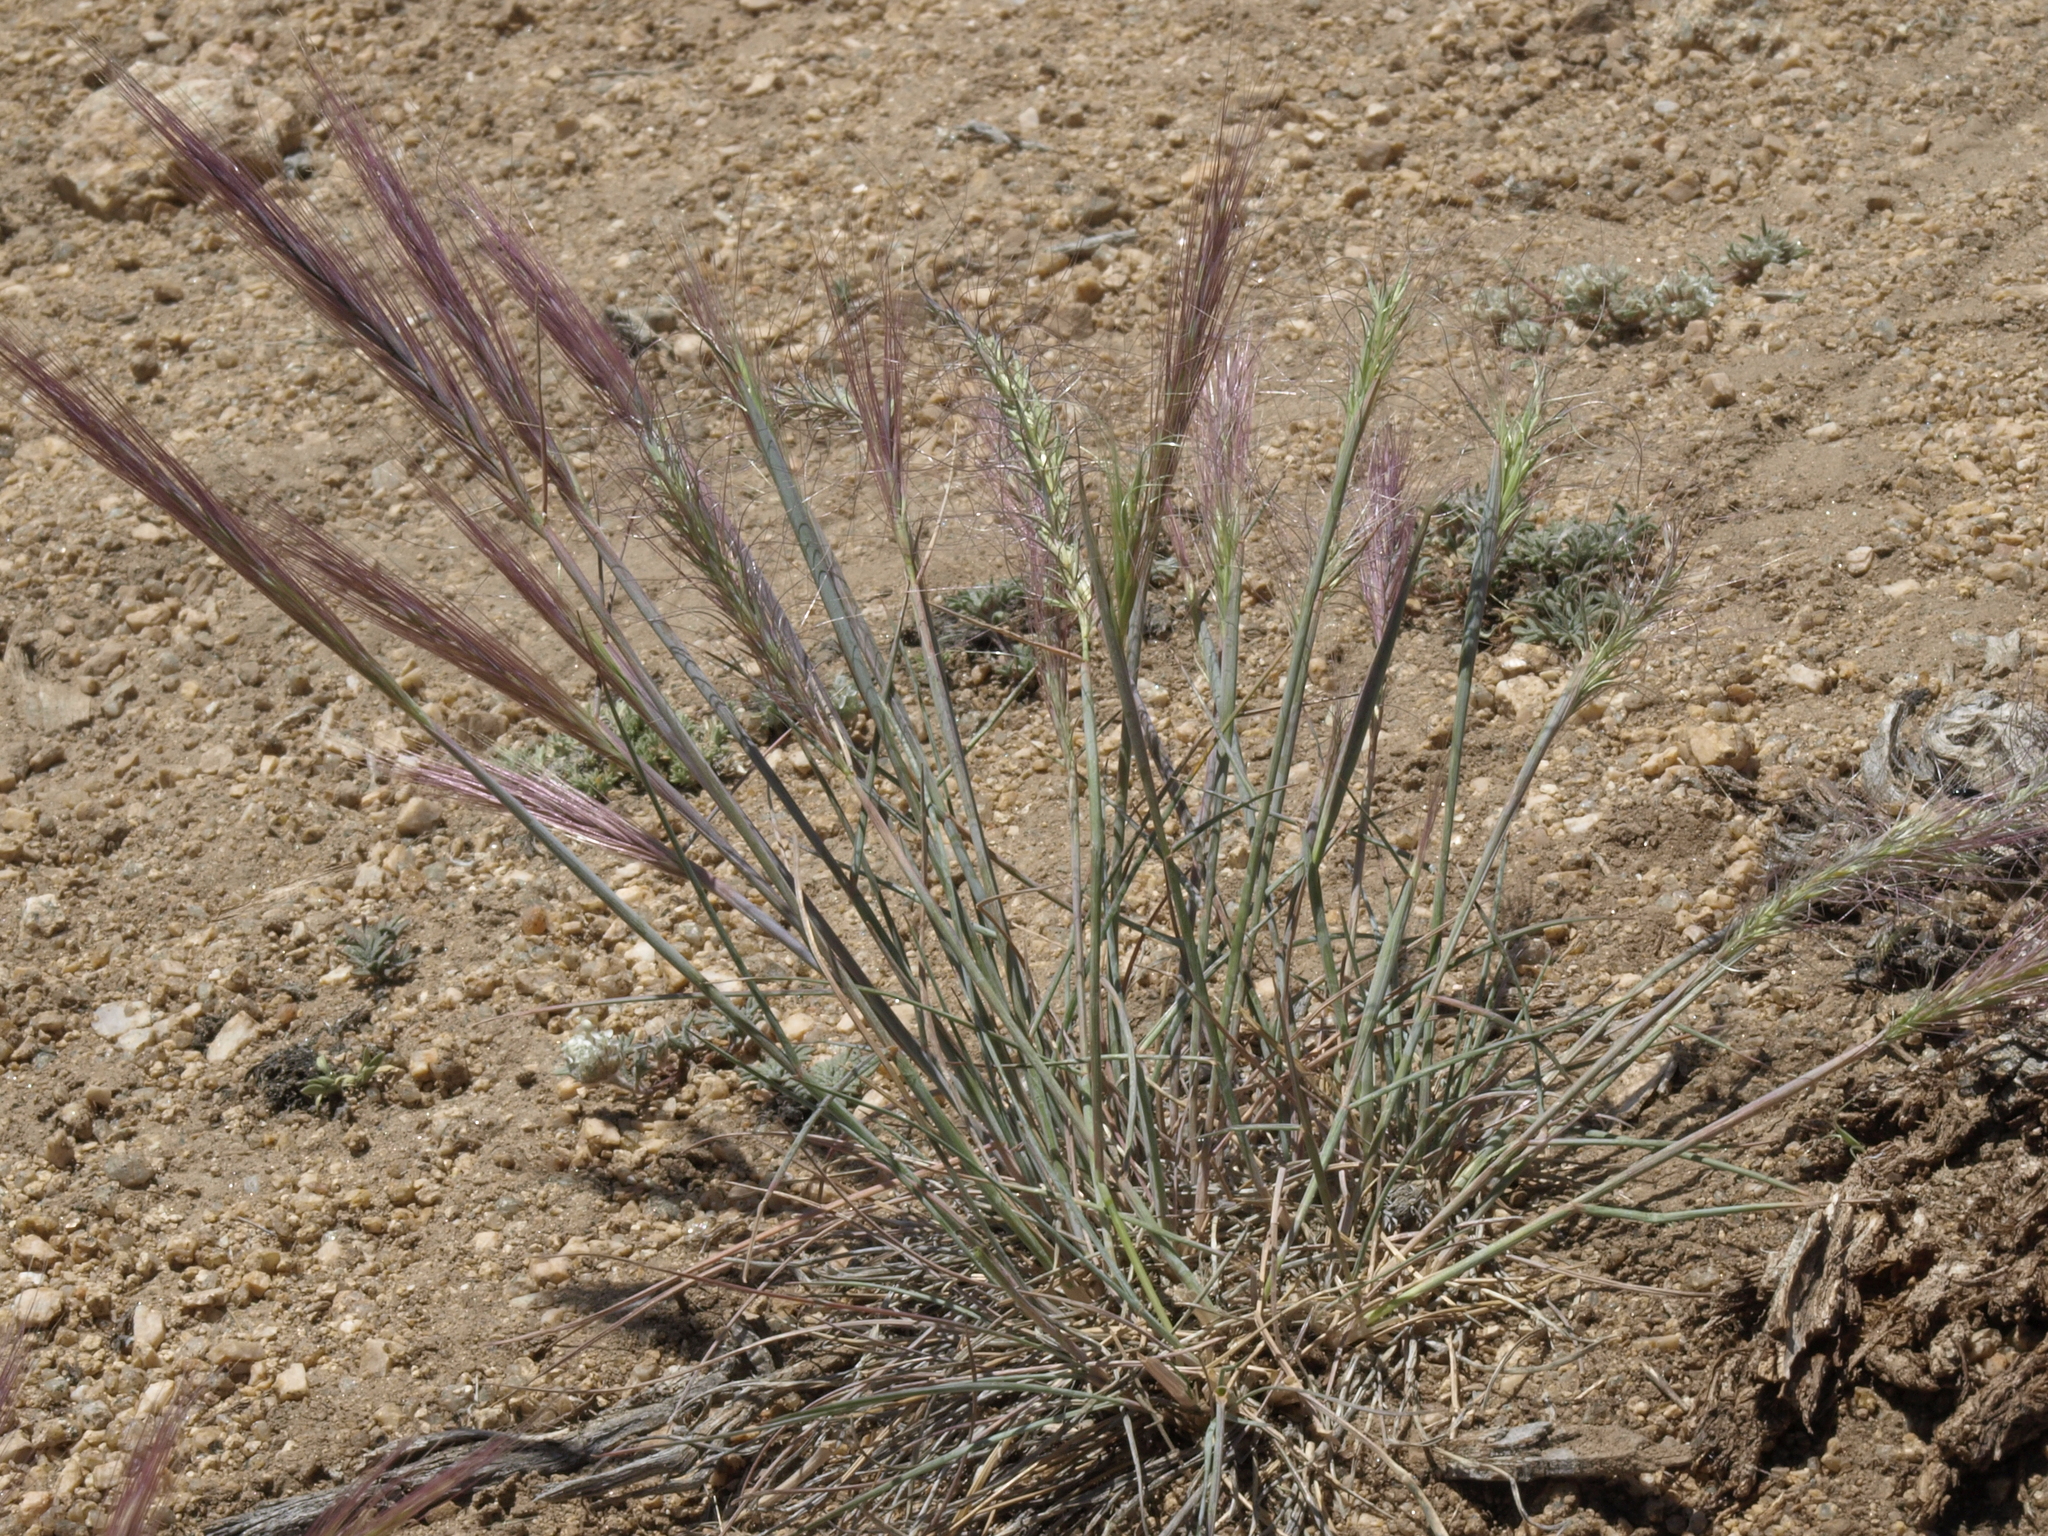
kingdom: Plantae
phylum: Tracheophyta
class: Liliopsida
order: Poales
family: Poaceae
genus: Elymus
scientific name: Elymus elymoides
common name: Bottlebrush squirreltail
